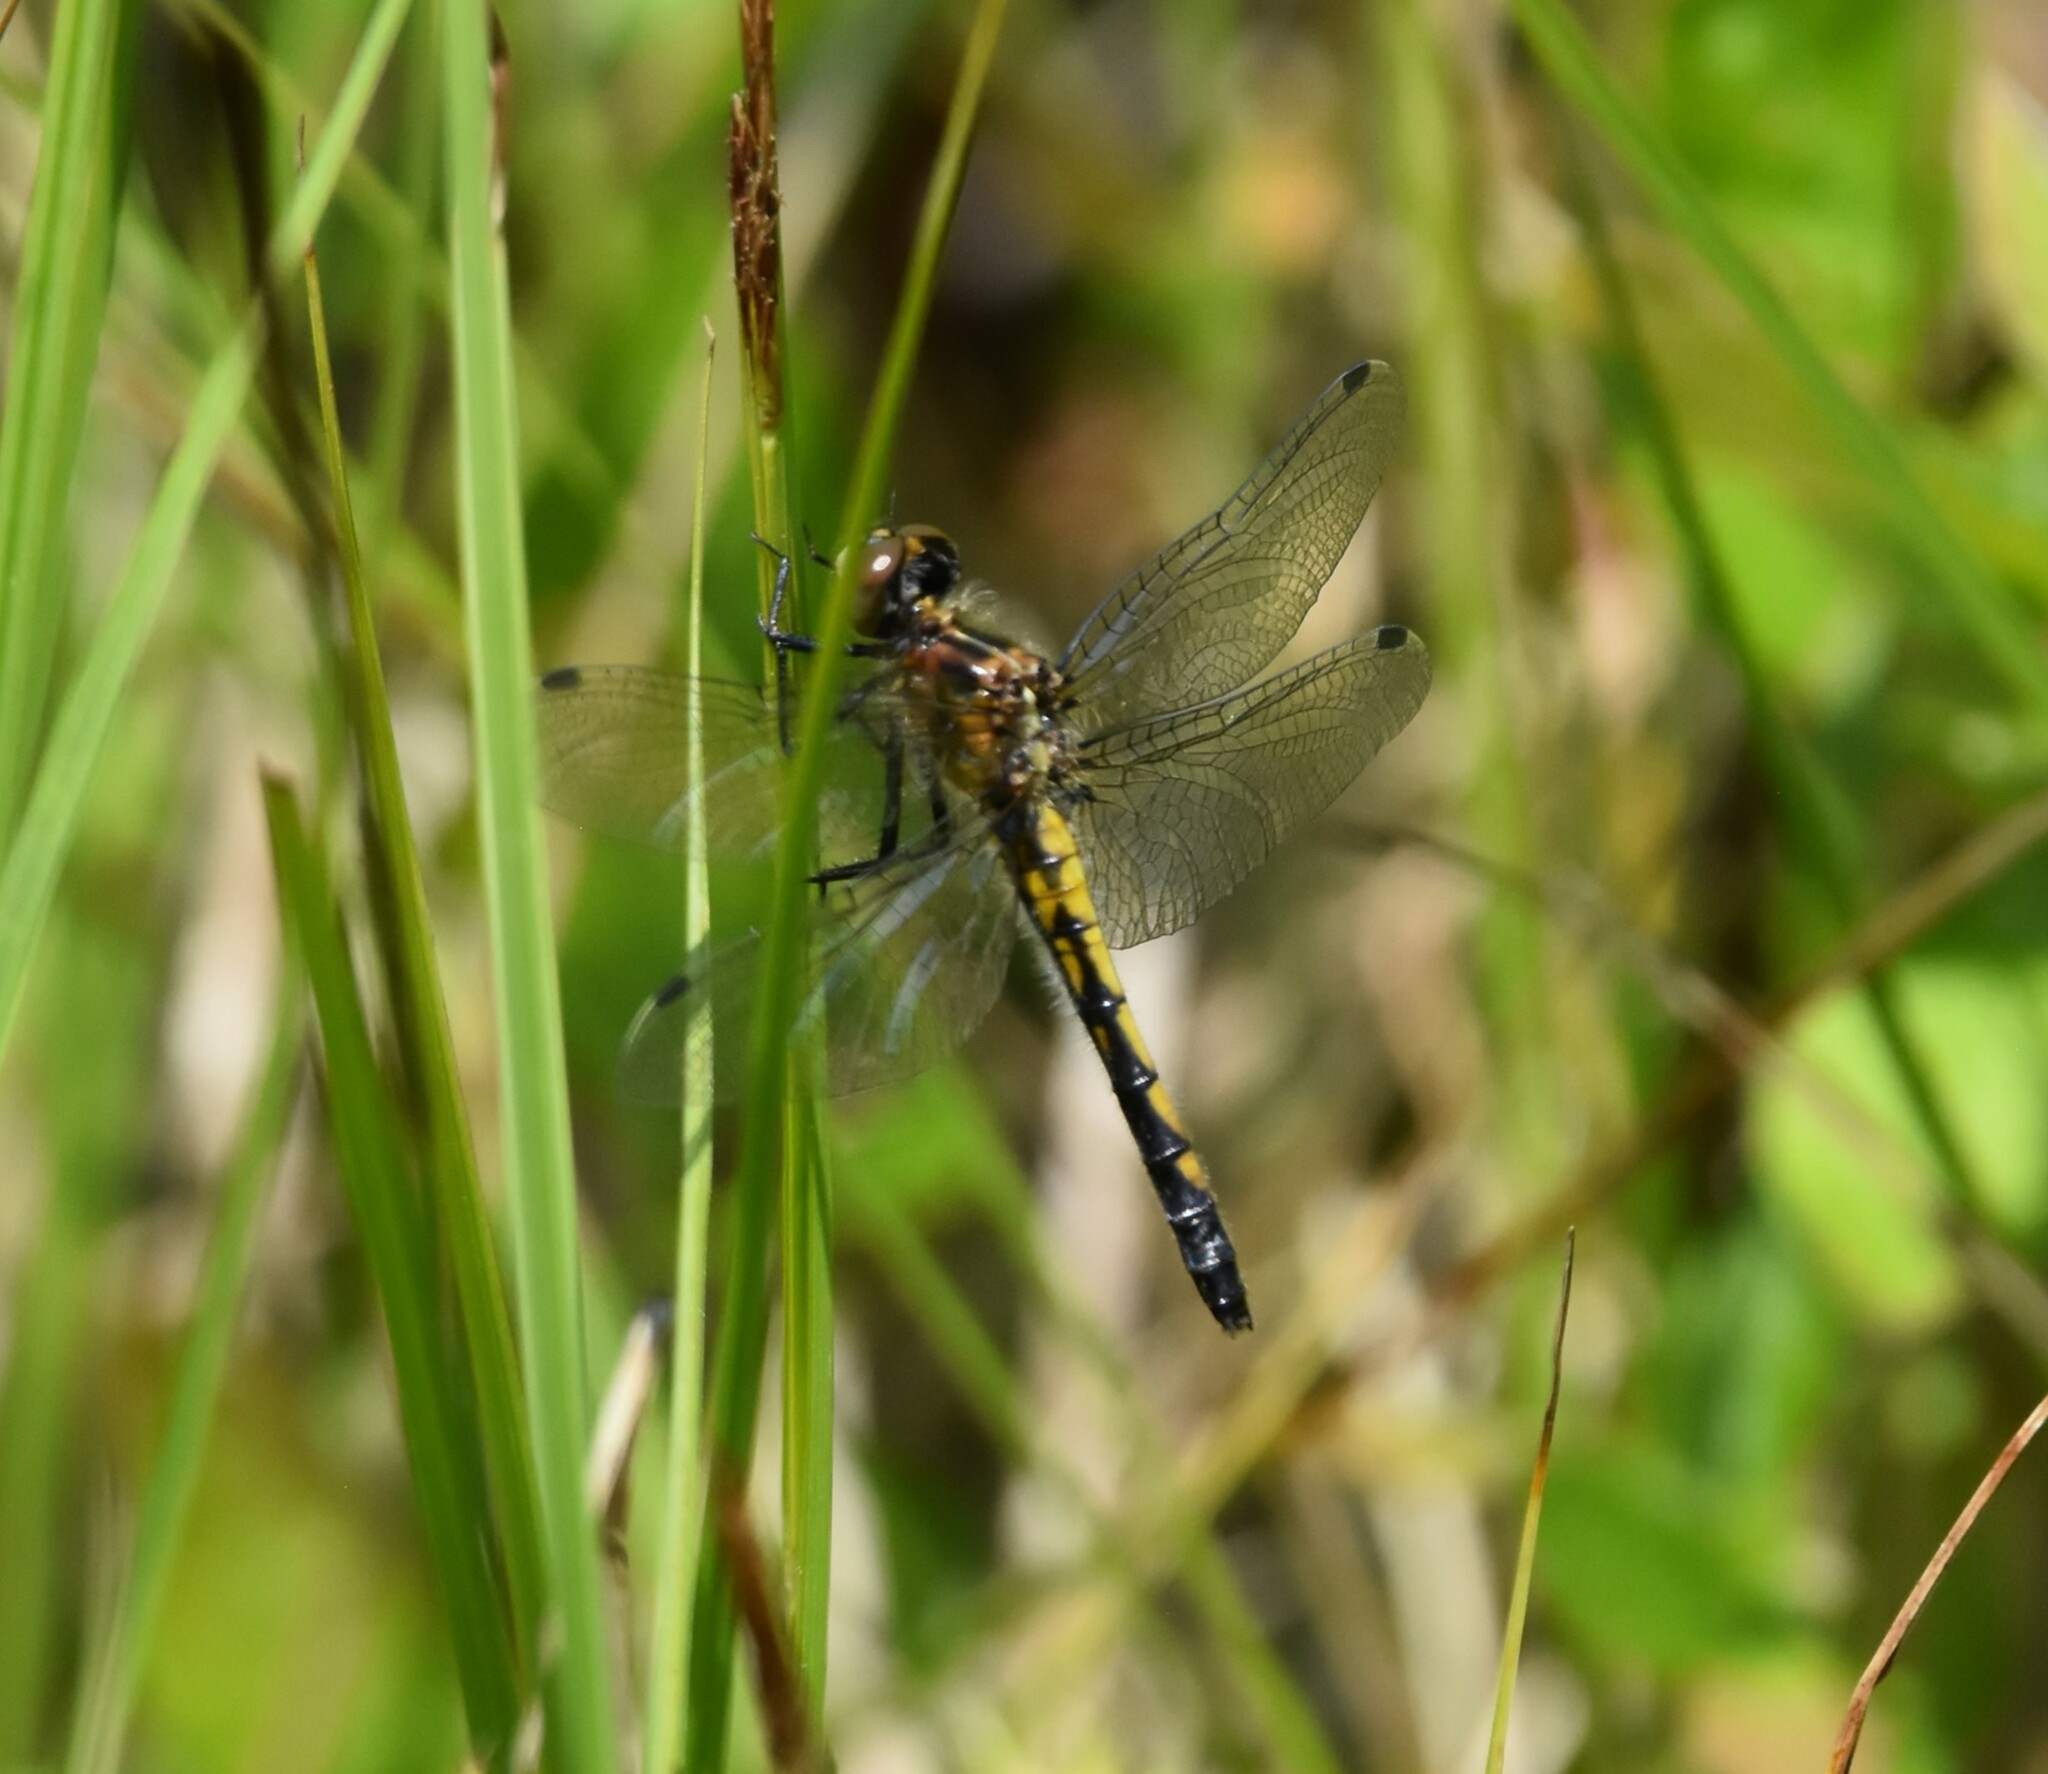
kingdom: Animalia
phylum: Arthropoda
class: Insecta
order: Odonata
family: Libellulidae
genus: Leucorrhinia
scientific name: Leucorrhinia intacta
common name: Dot-tailed whiteface
